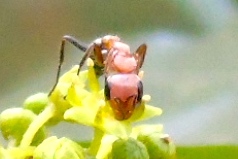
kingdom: Animalia
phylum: Arthropoda
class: Insecta
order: Hymenoptera
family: Formicidae
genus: Pseudomyrmex
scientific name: Pseudomyrmex gracilis
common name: Graceful twig ant
